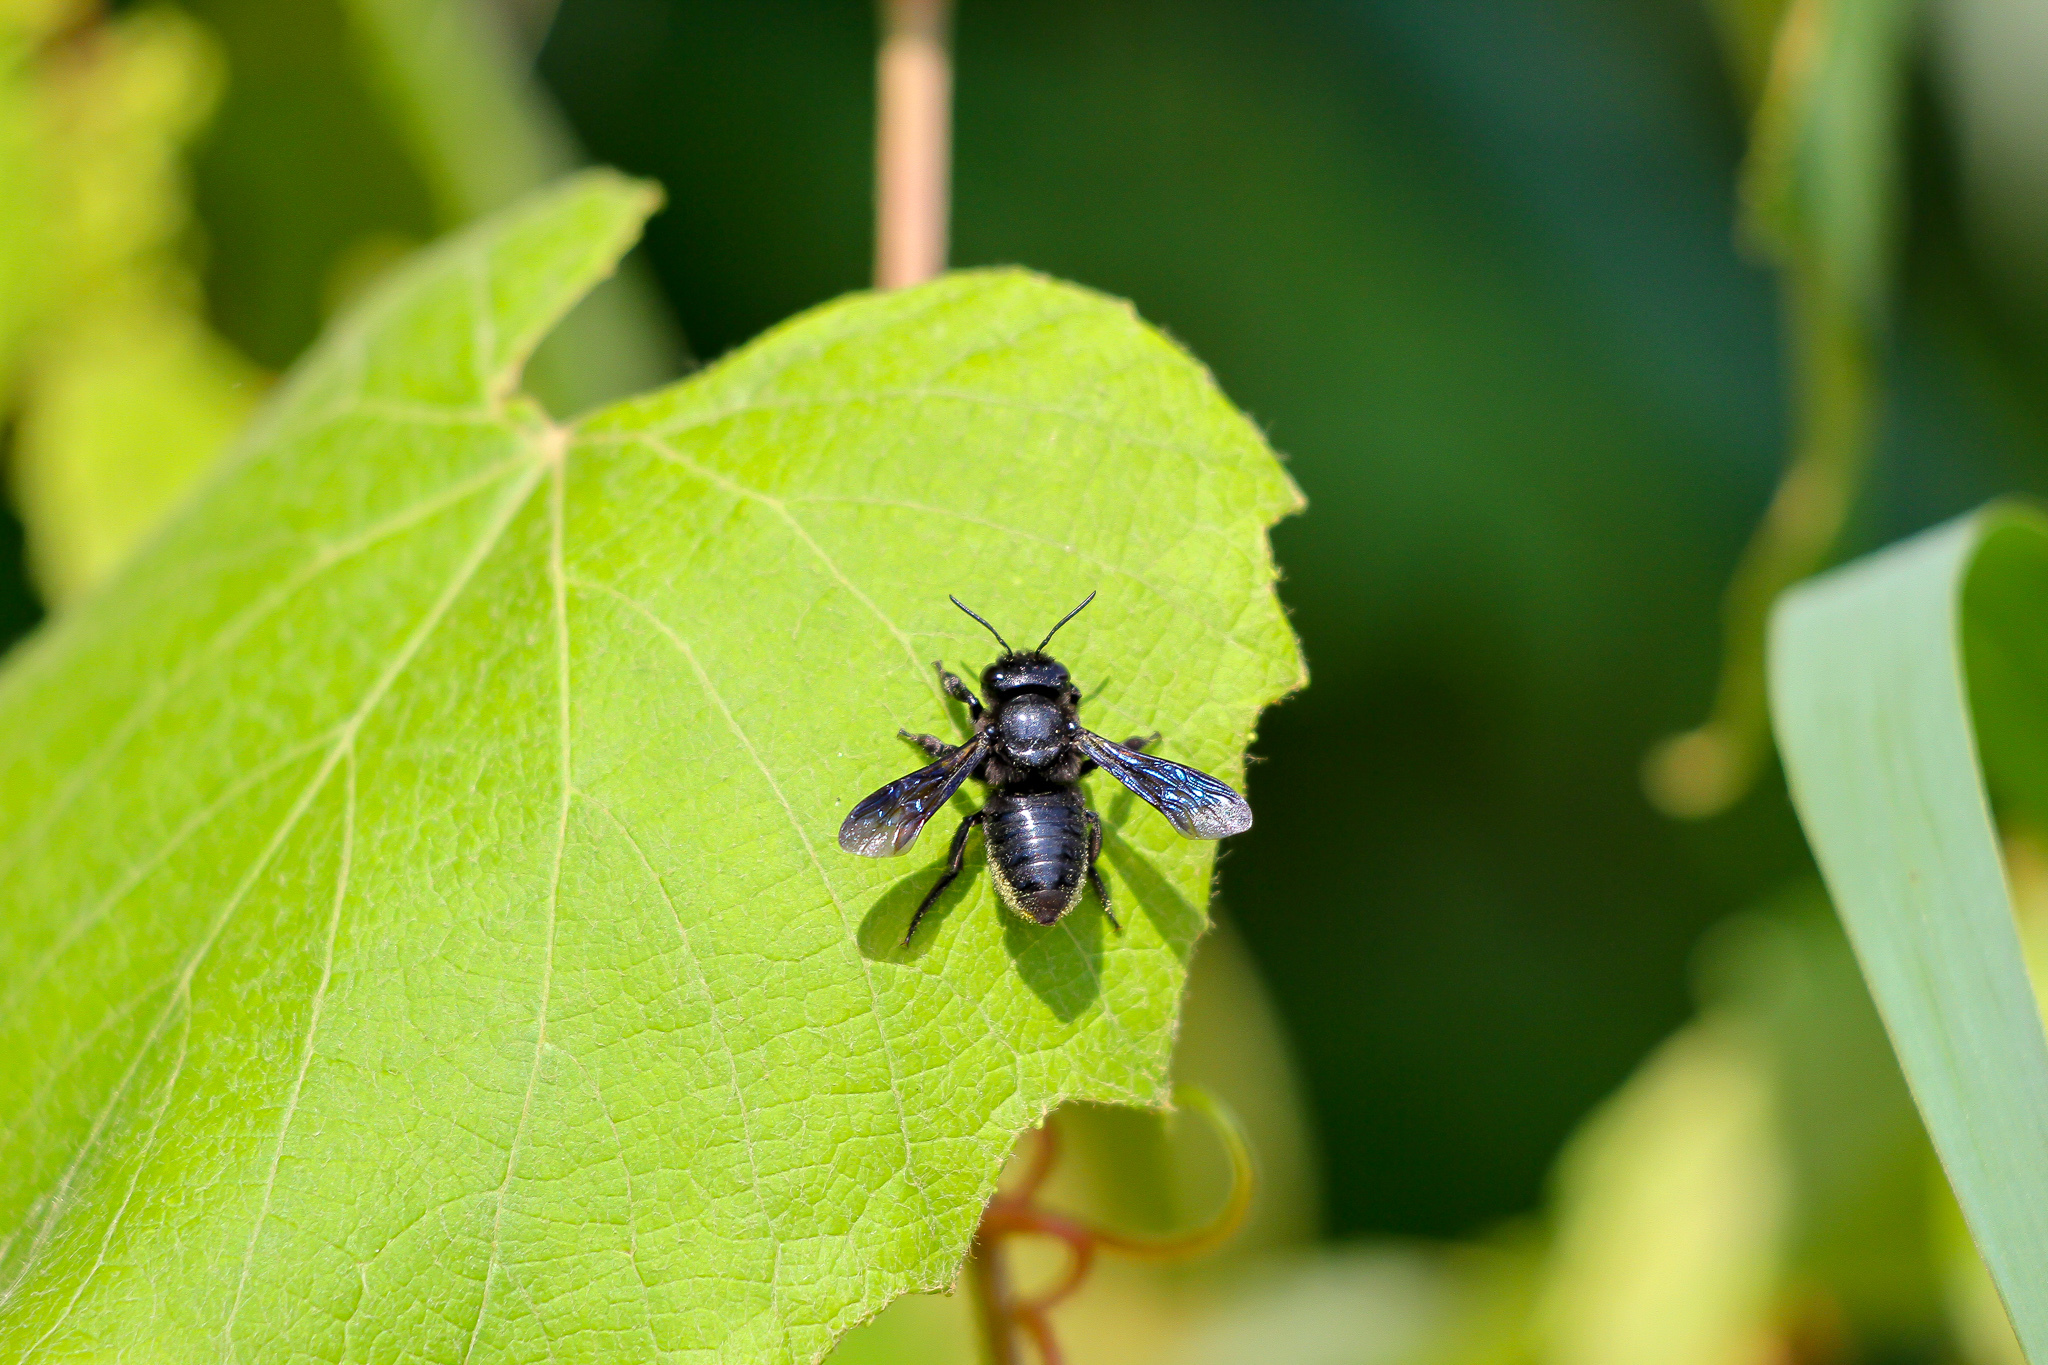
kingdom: Animalia
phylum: Arthropoda
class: Insecta
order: Hymenoptera
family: Megachilidae
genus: Megachile
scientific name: Megachile xylocopoides
